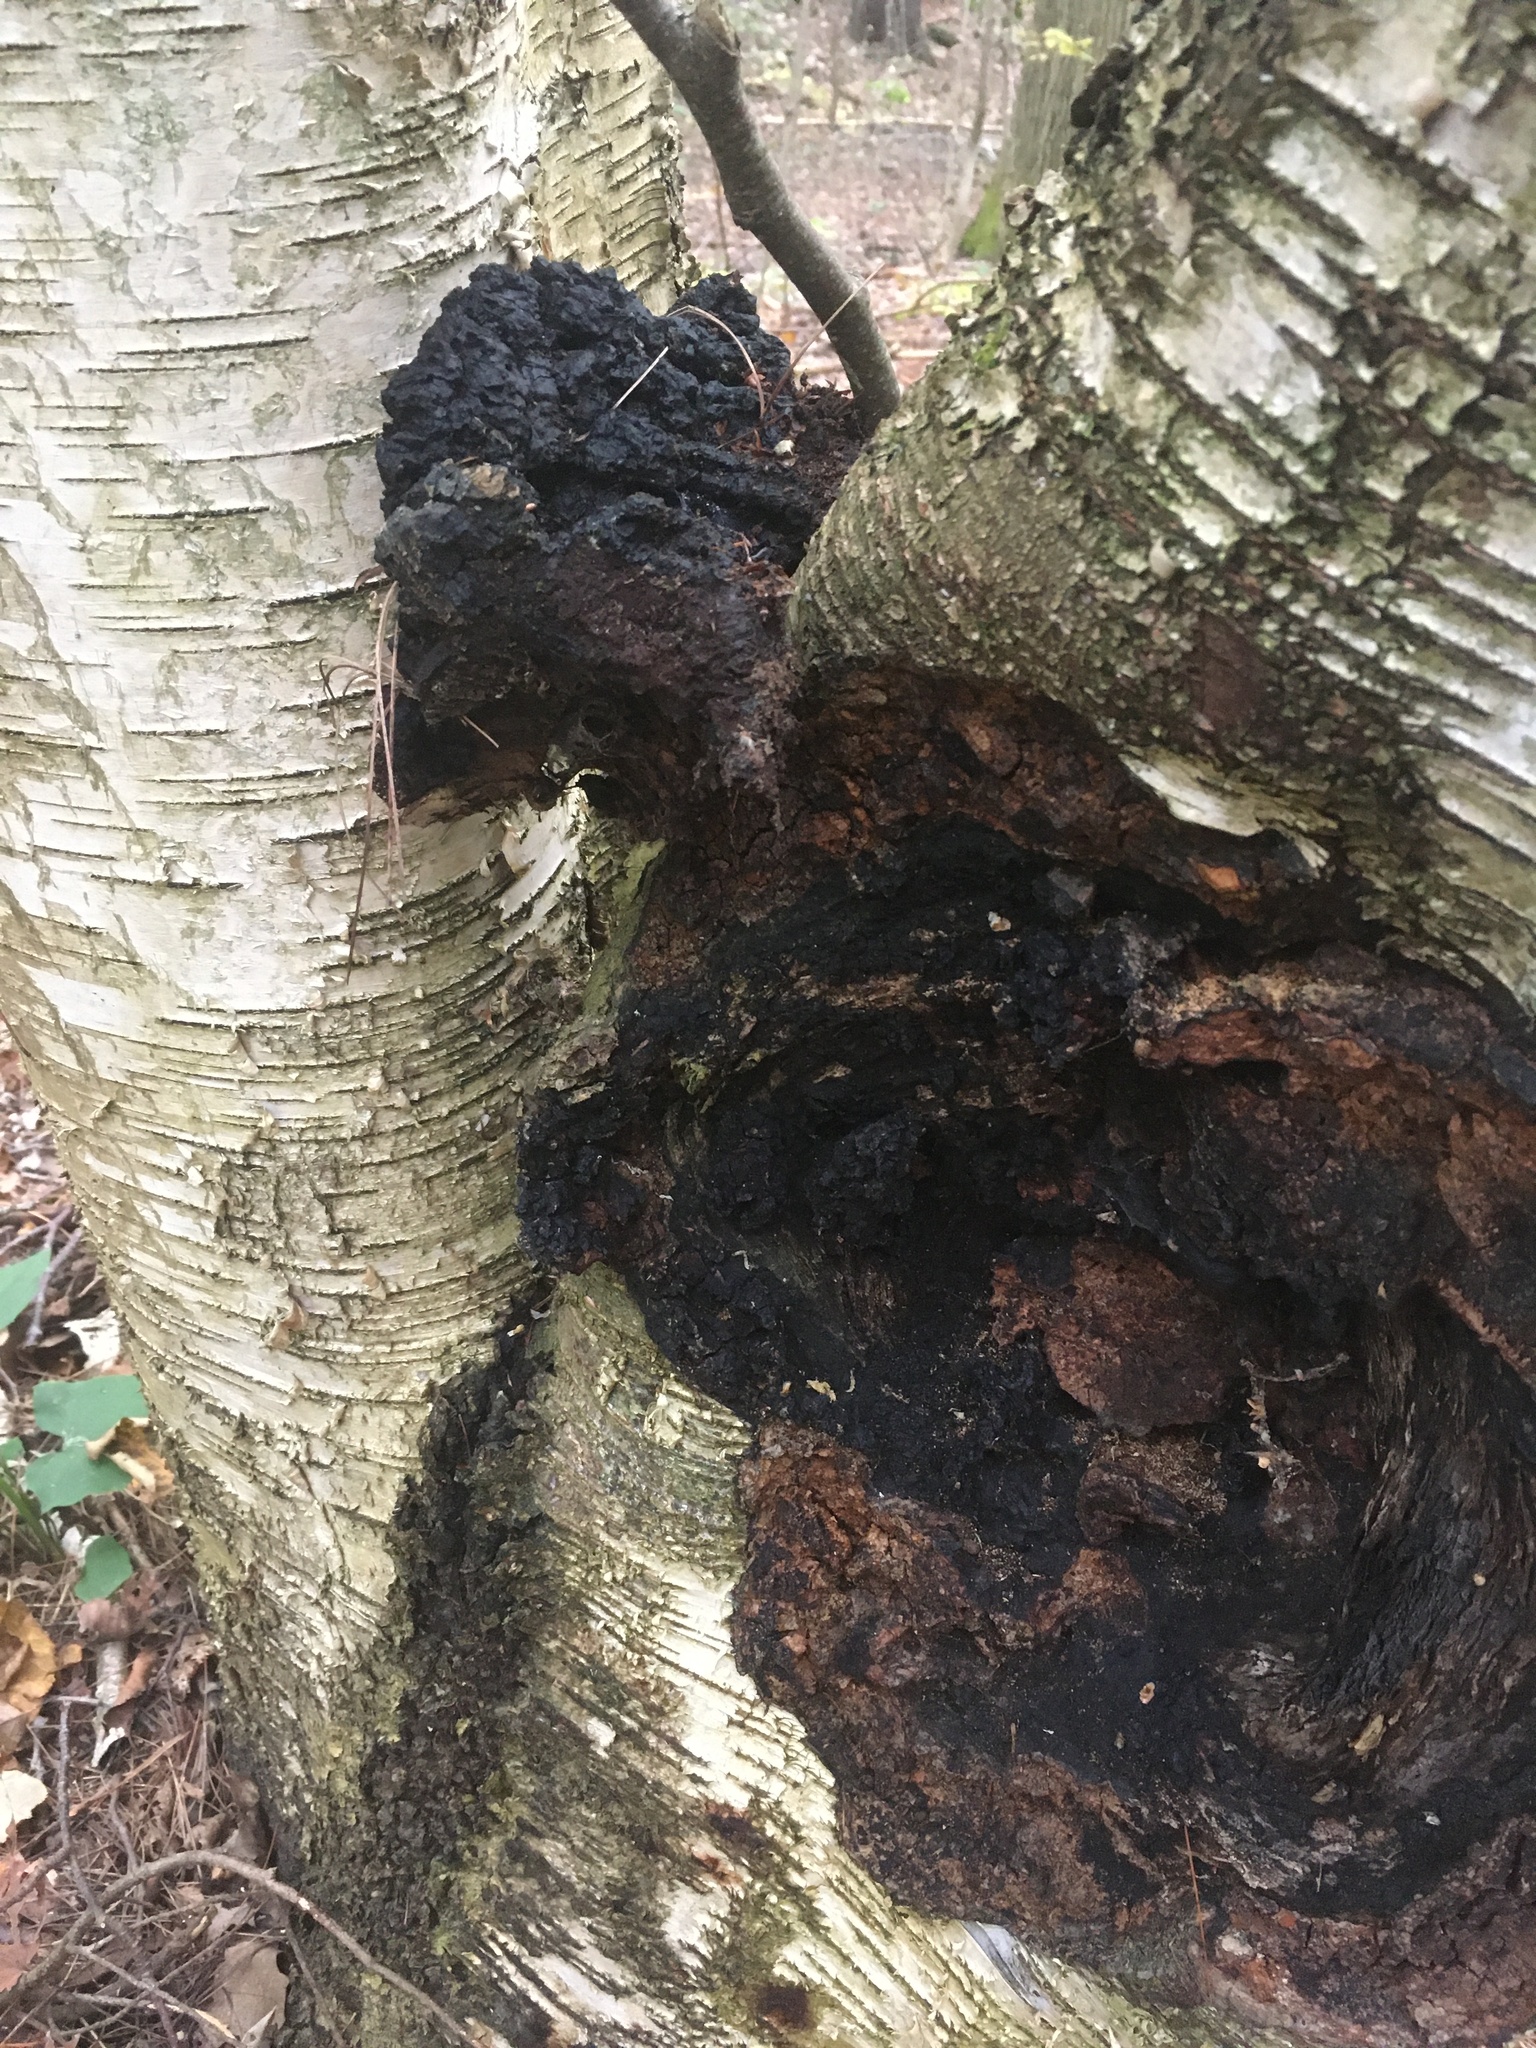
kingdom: Fungi
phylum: Basidiomycota
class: Agaricomycetes
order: Hymenochaetales
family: Hymenochaetaceae
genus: Inonotus
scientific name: Inonotus obliquus
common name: Chaga
